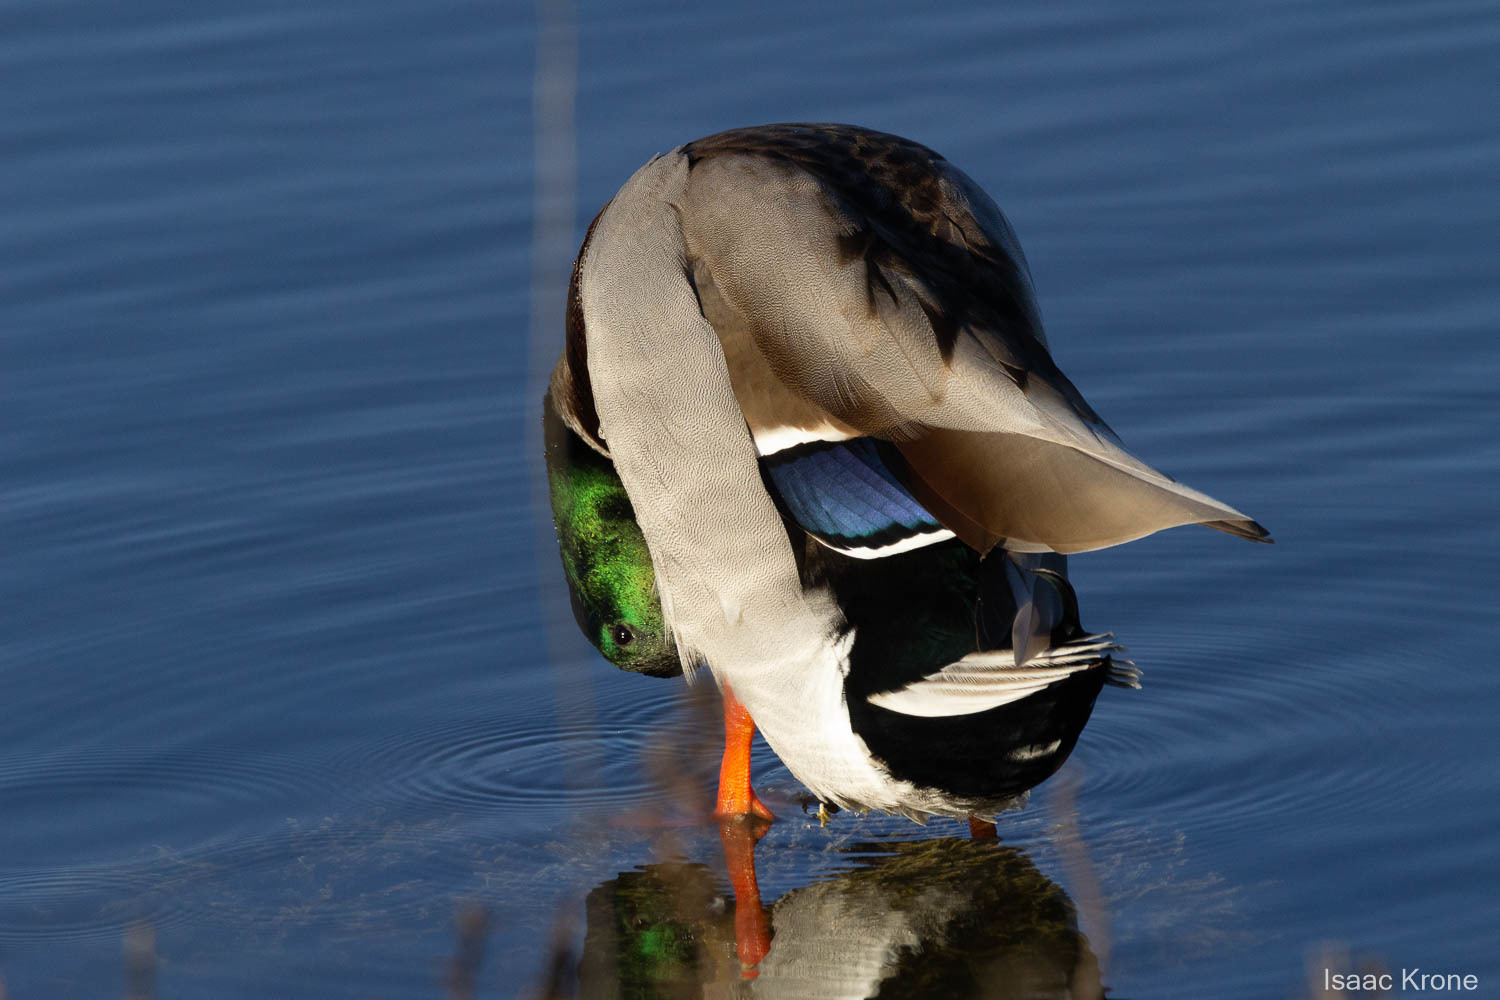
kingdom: Animalia
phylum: Chordata
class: Aves
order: Anseriformes
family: Anatidae
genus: Anas
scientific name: Anas platyrhynchos
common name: Mallard
